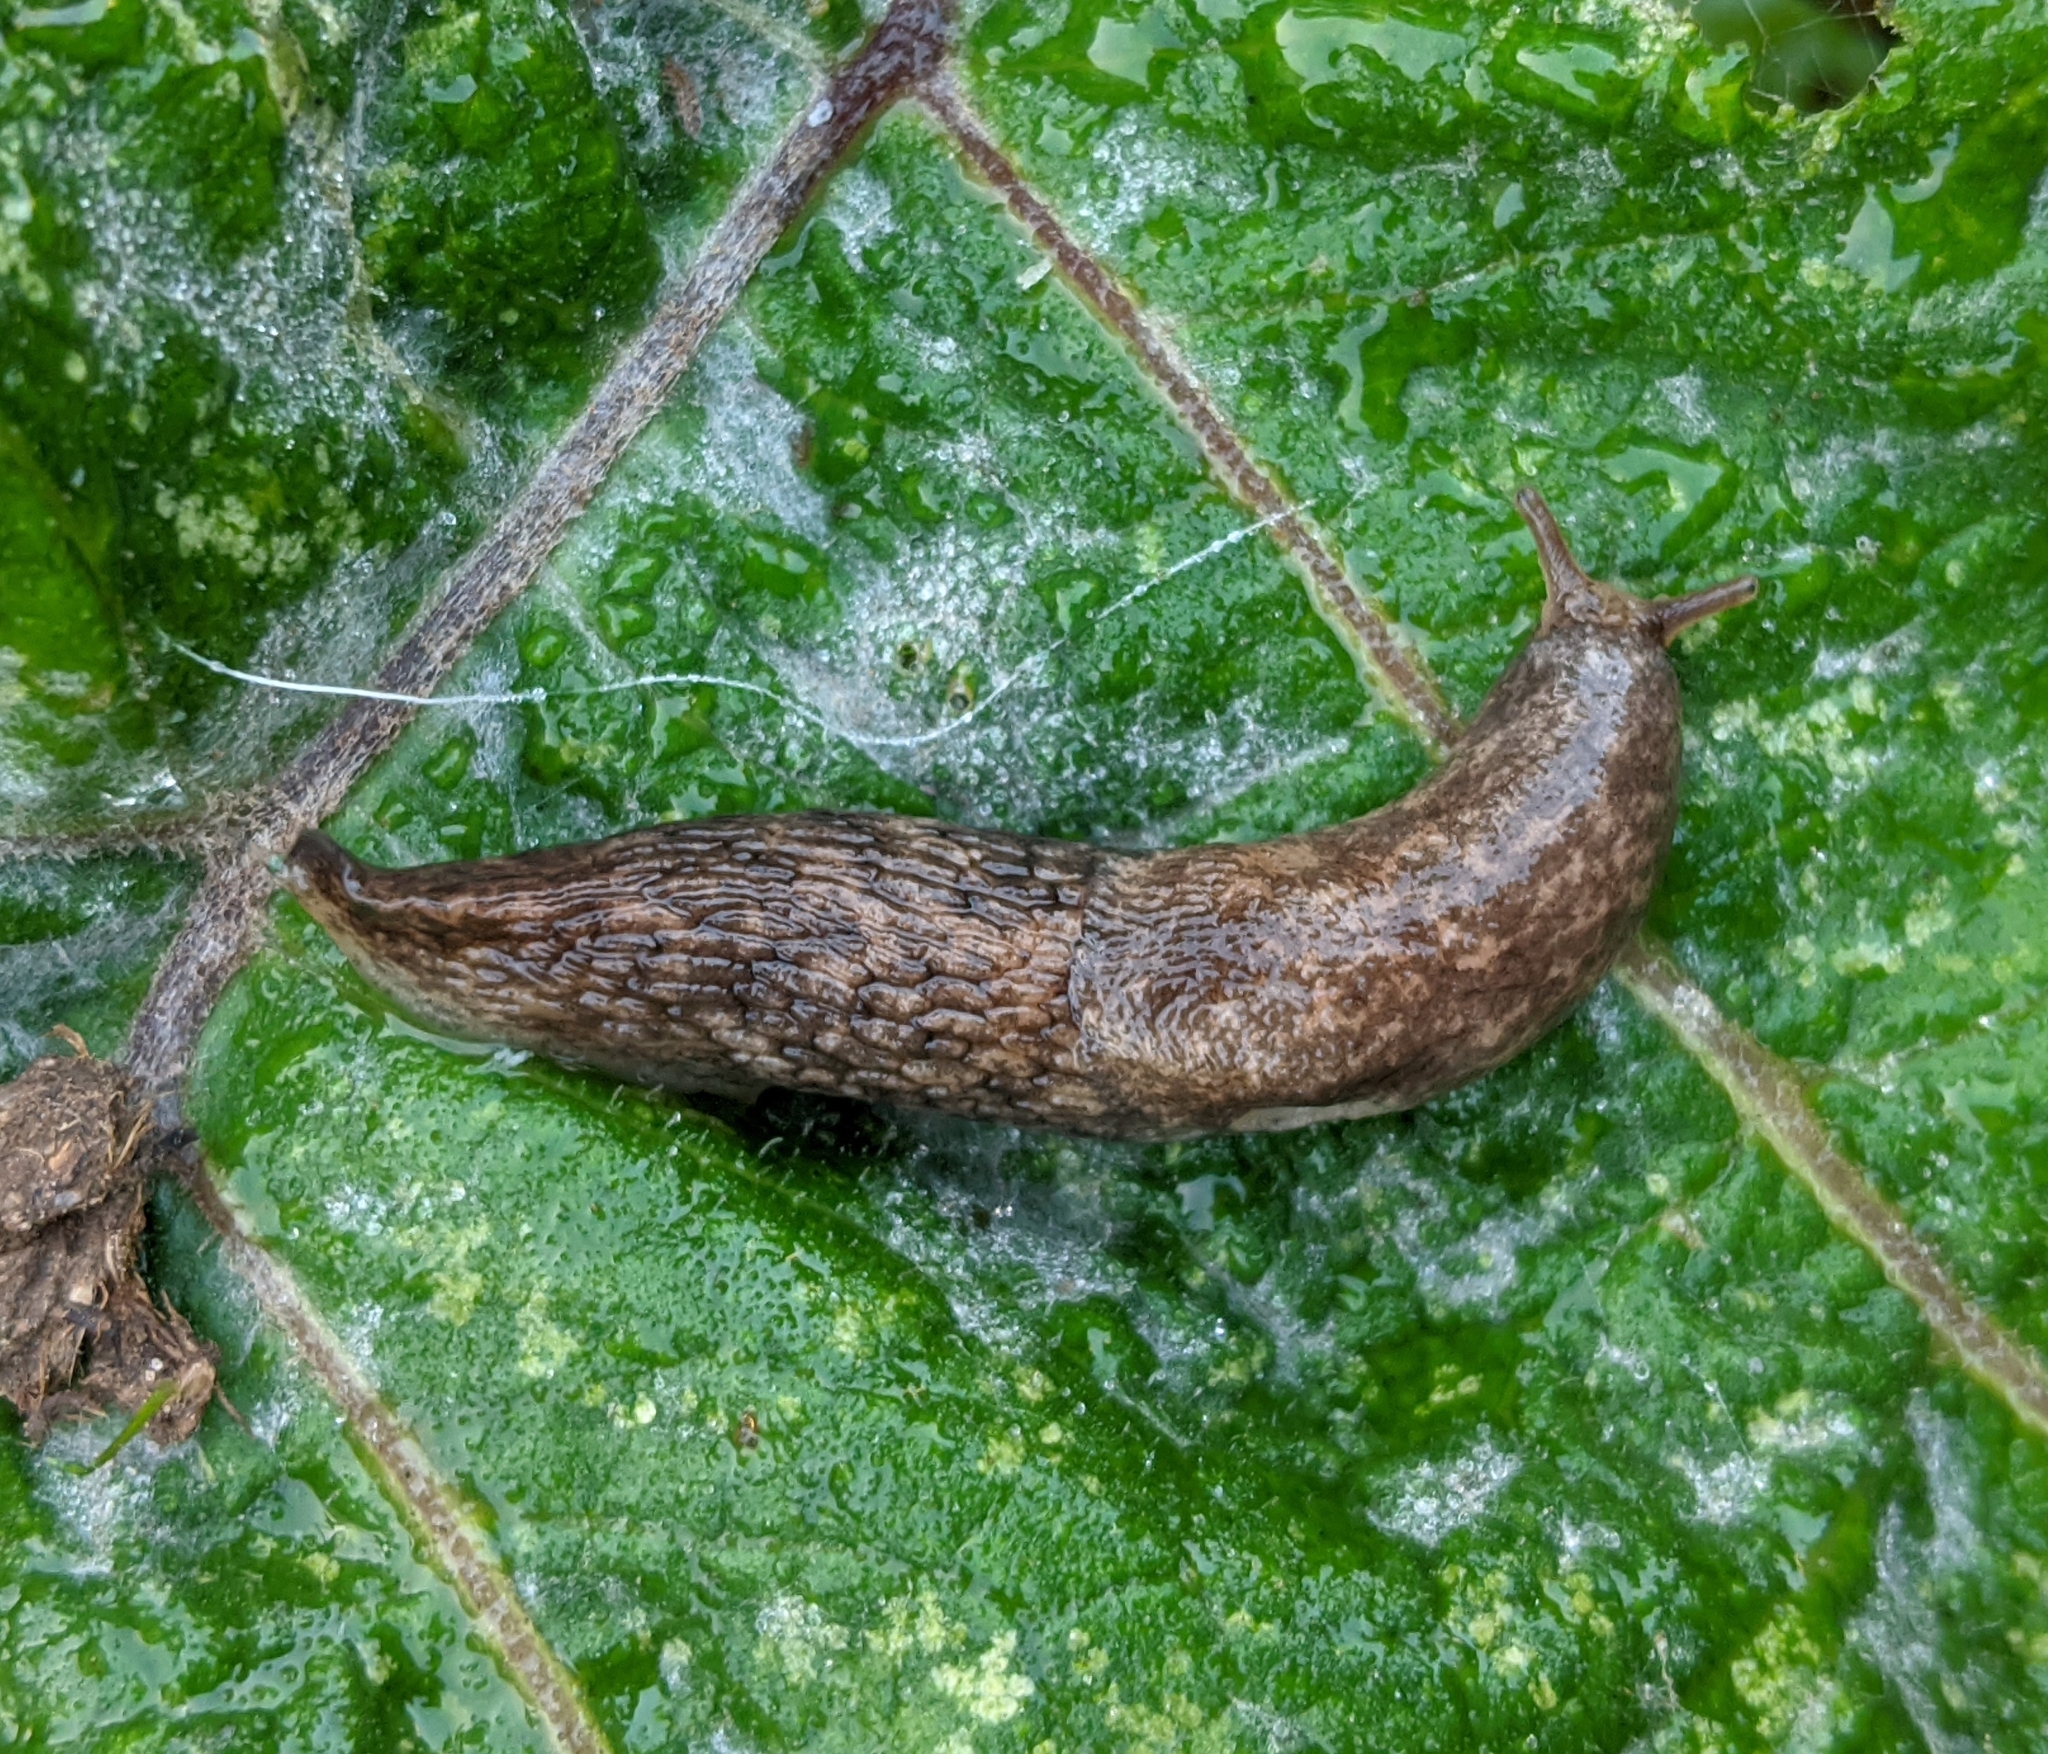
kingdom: Animalia
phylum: Mollusca
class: Gastropoda
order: Stylommatophora
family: Agriolimacidae
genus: Deroceras
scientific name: Deroceras reticulatum
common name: Gray field slug
